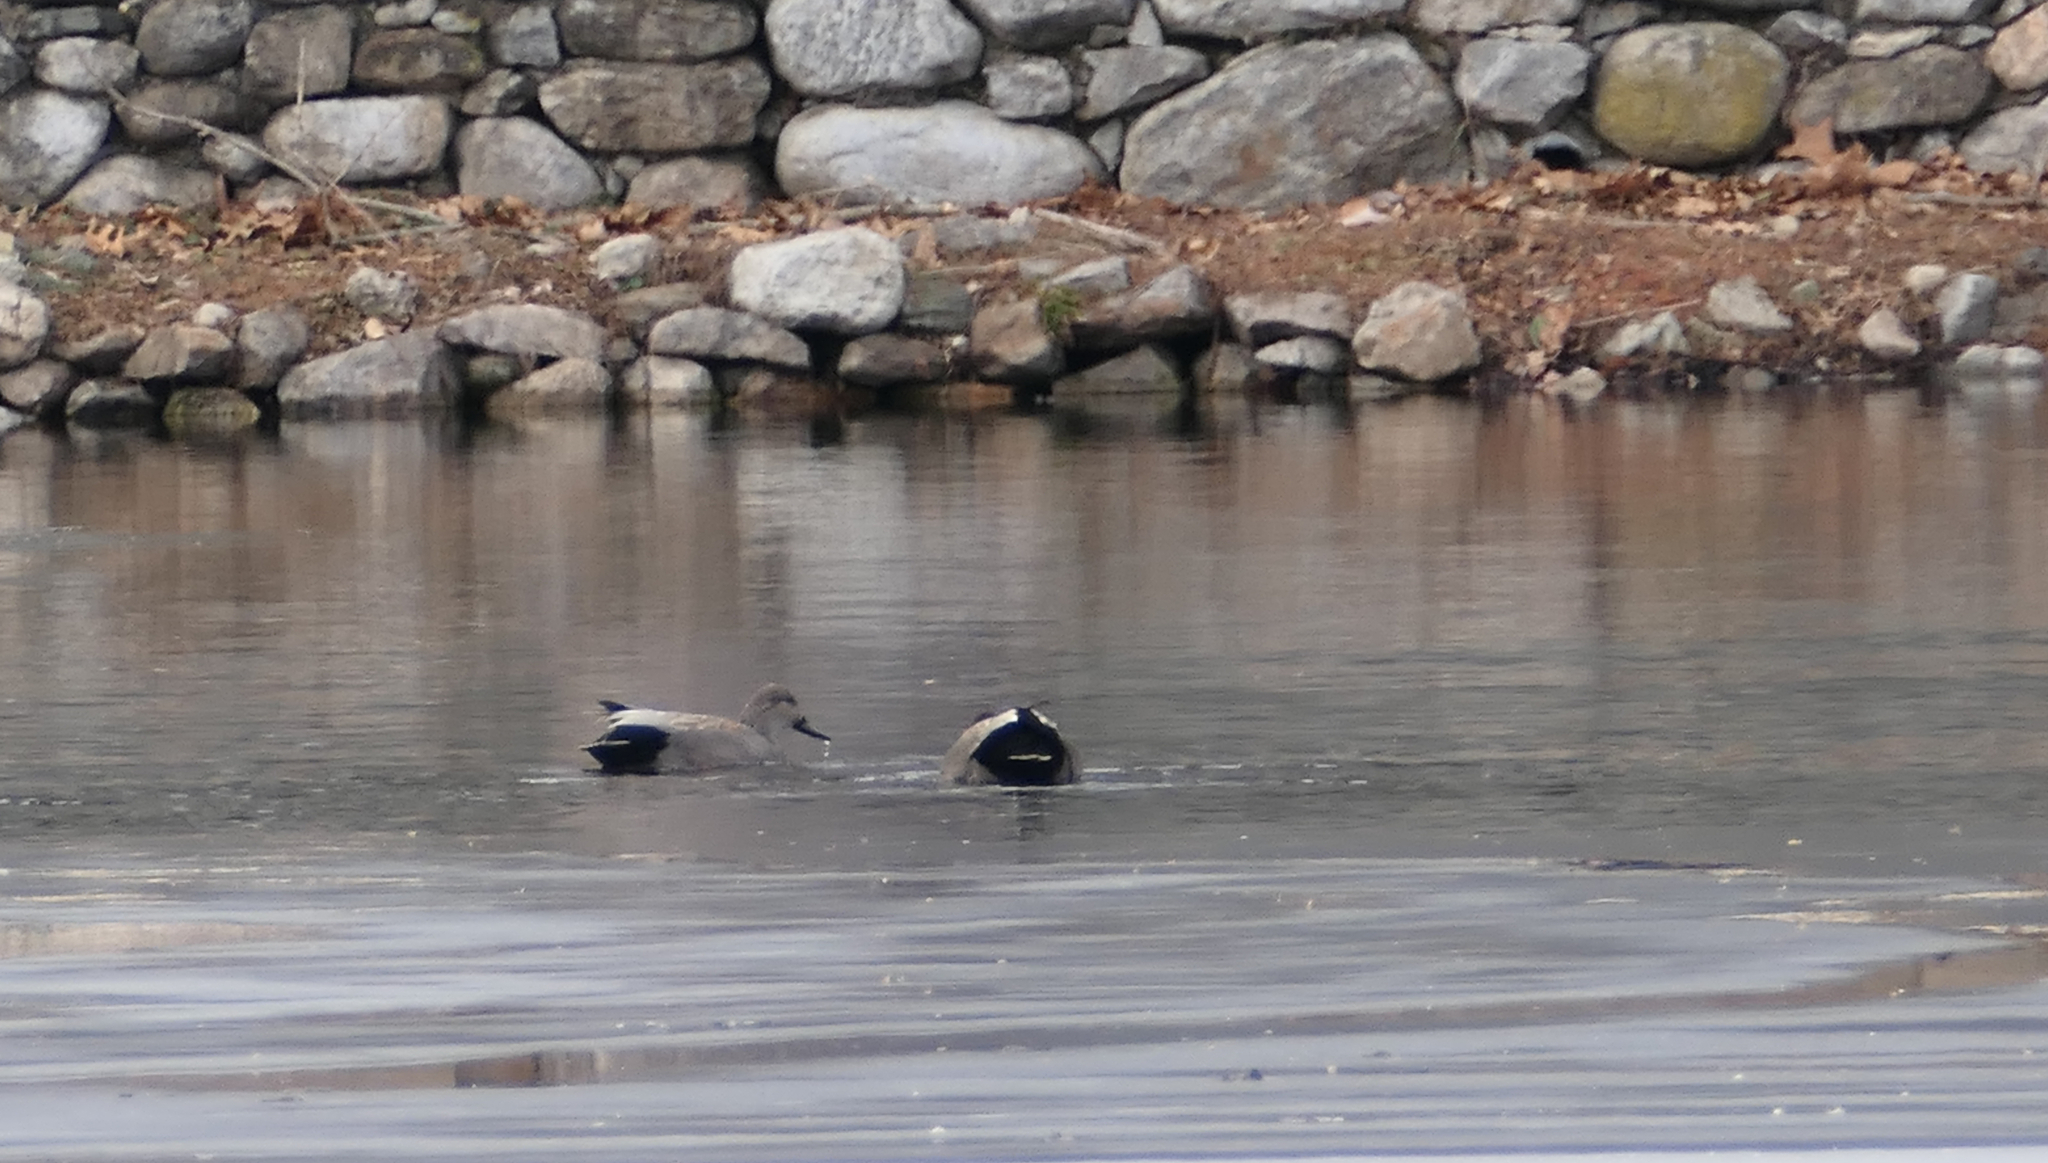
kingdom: Animalia
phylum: Chordata
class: Aves
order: Anseriformes
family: Anatidae
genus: Mareca
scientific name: Mareca strepera
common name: Gadwall
